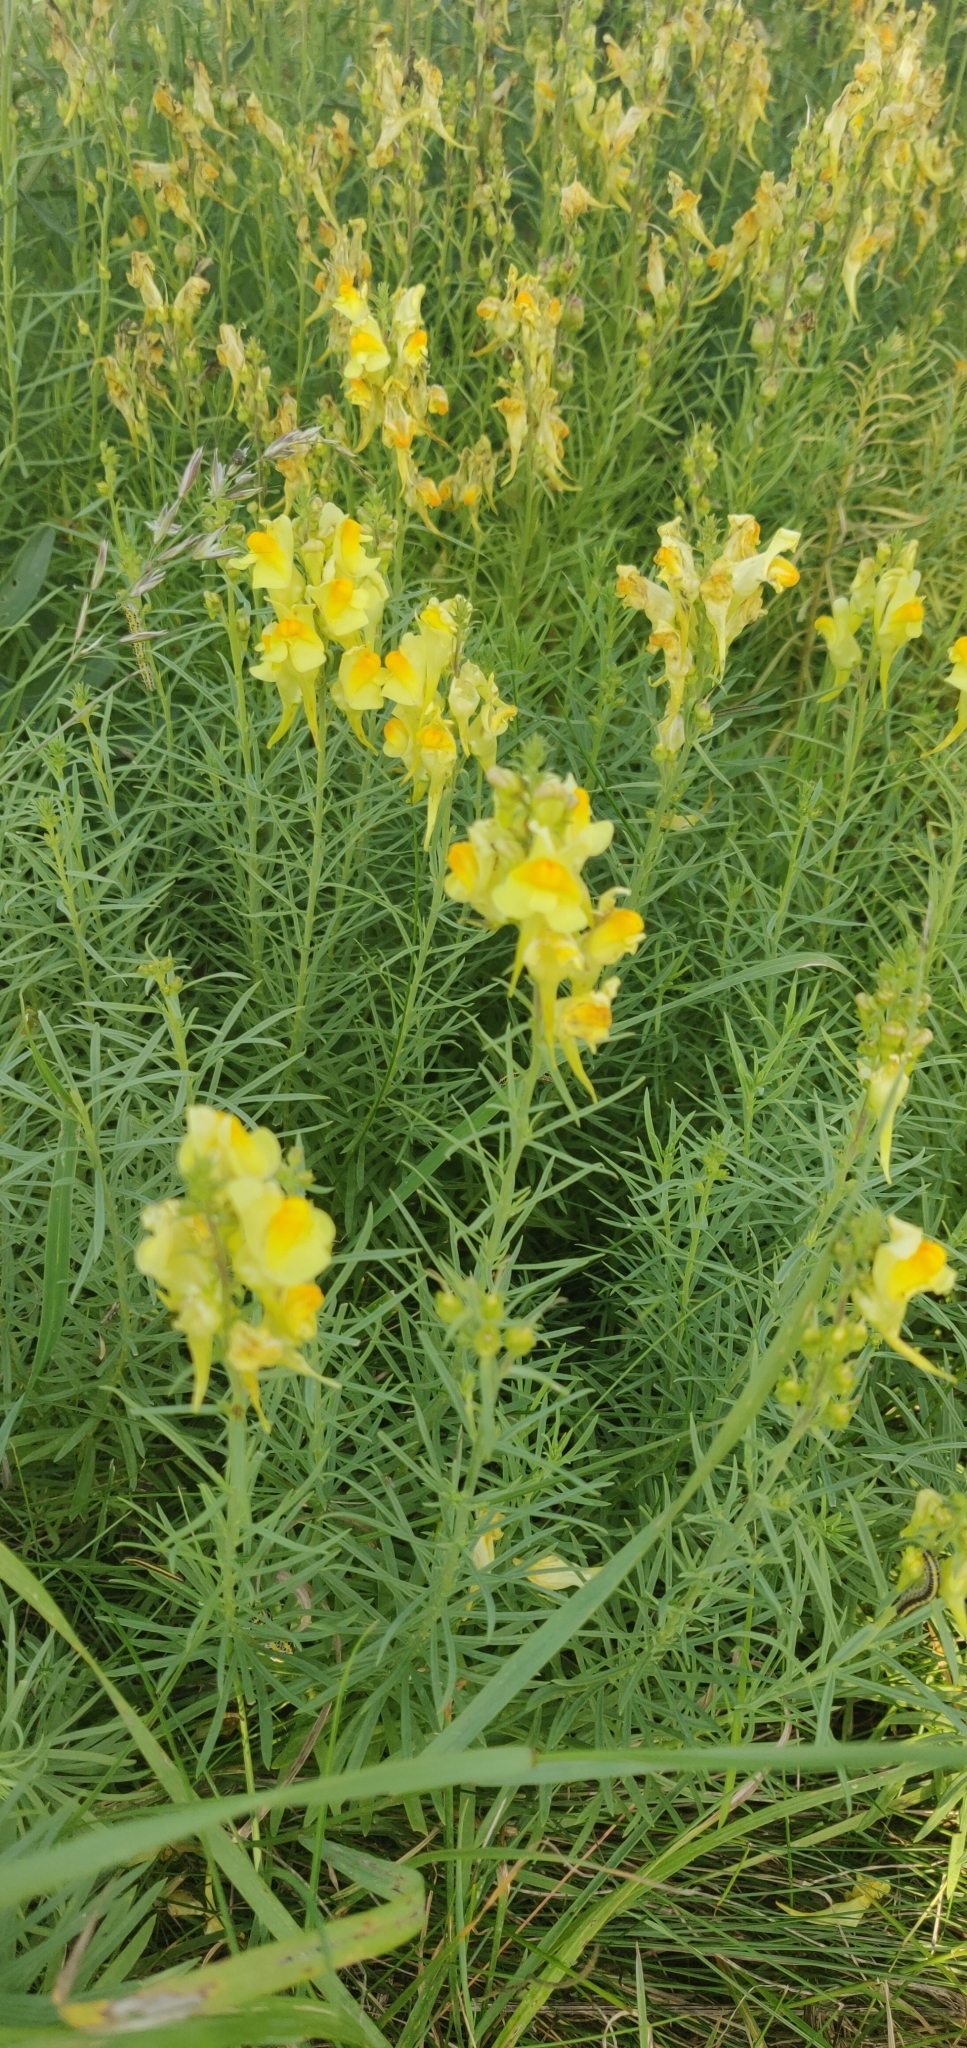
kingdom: Plantae
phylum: Tracheophyta
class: Magnoliopsida
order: Lamiales
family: Plantaginaceae
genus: Linaria
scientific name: Linaria vulgaris
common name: Butter and eggs
